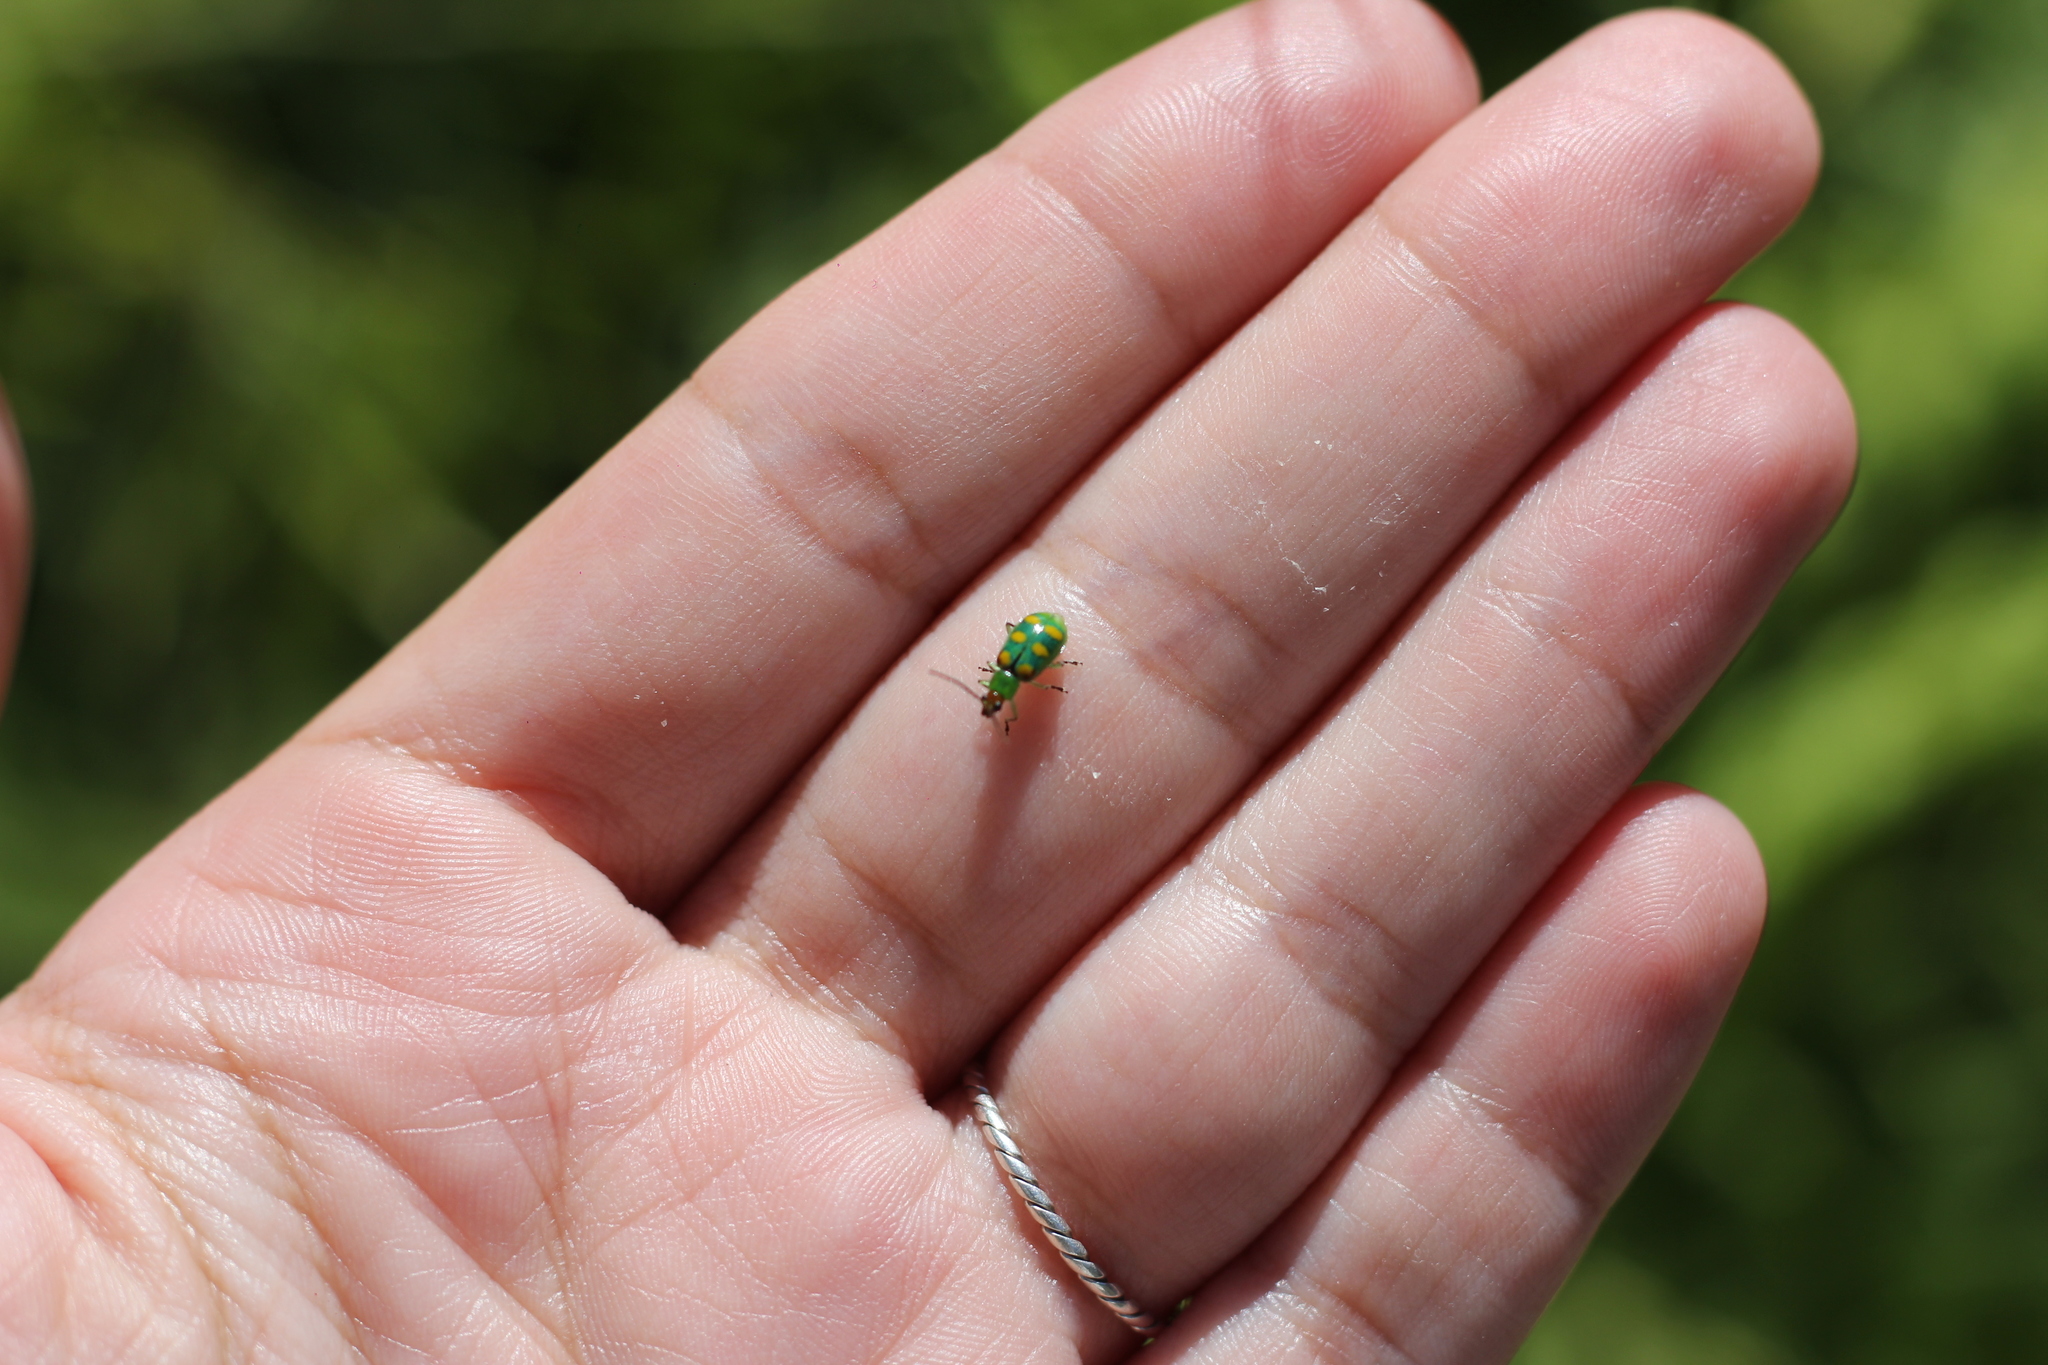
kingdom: Animalia
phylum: Arthropoda
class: Insecta
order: Coleoptera
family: Chrysomelidae
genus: Diabrotica
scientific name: Diabrotica speciosa
